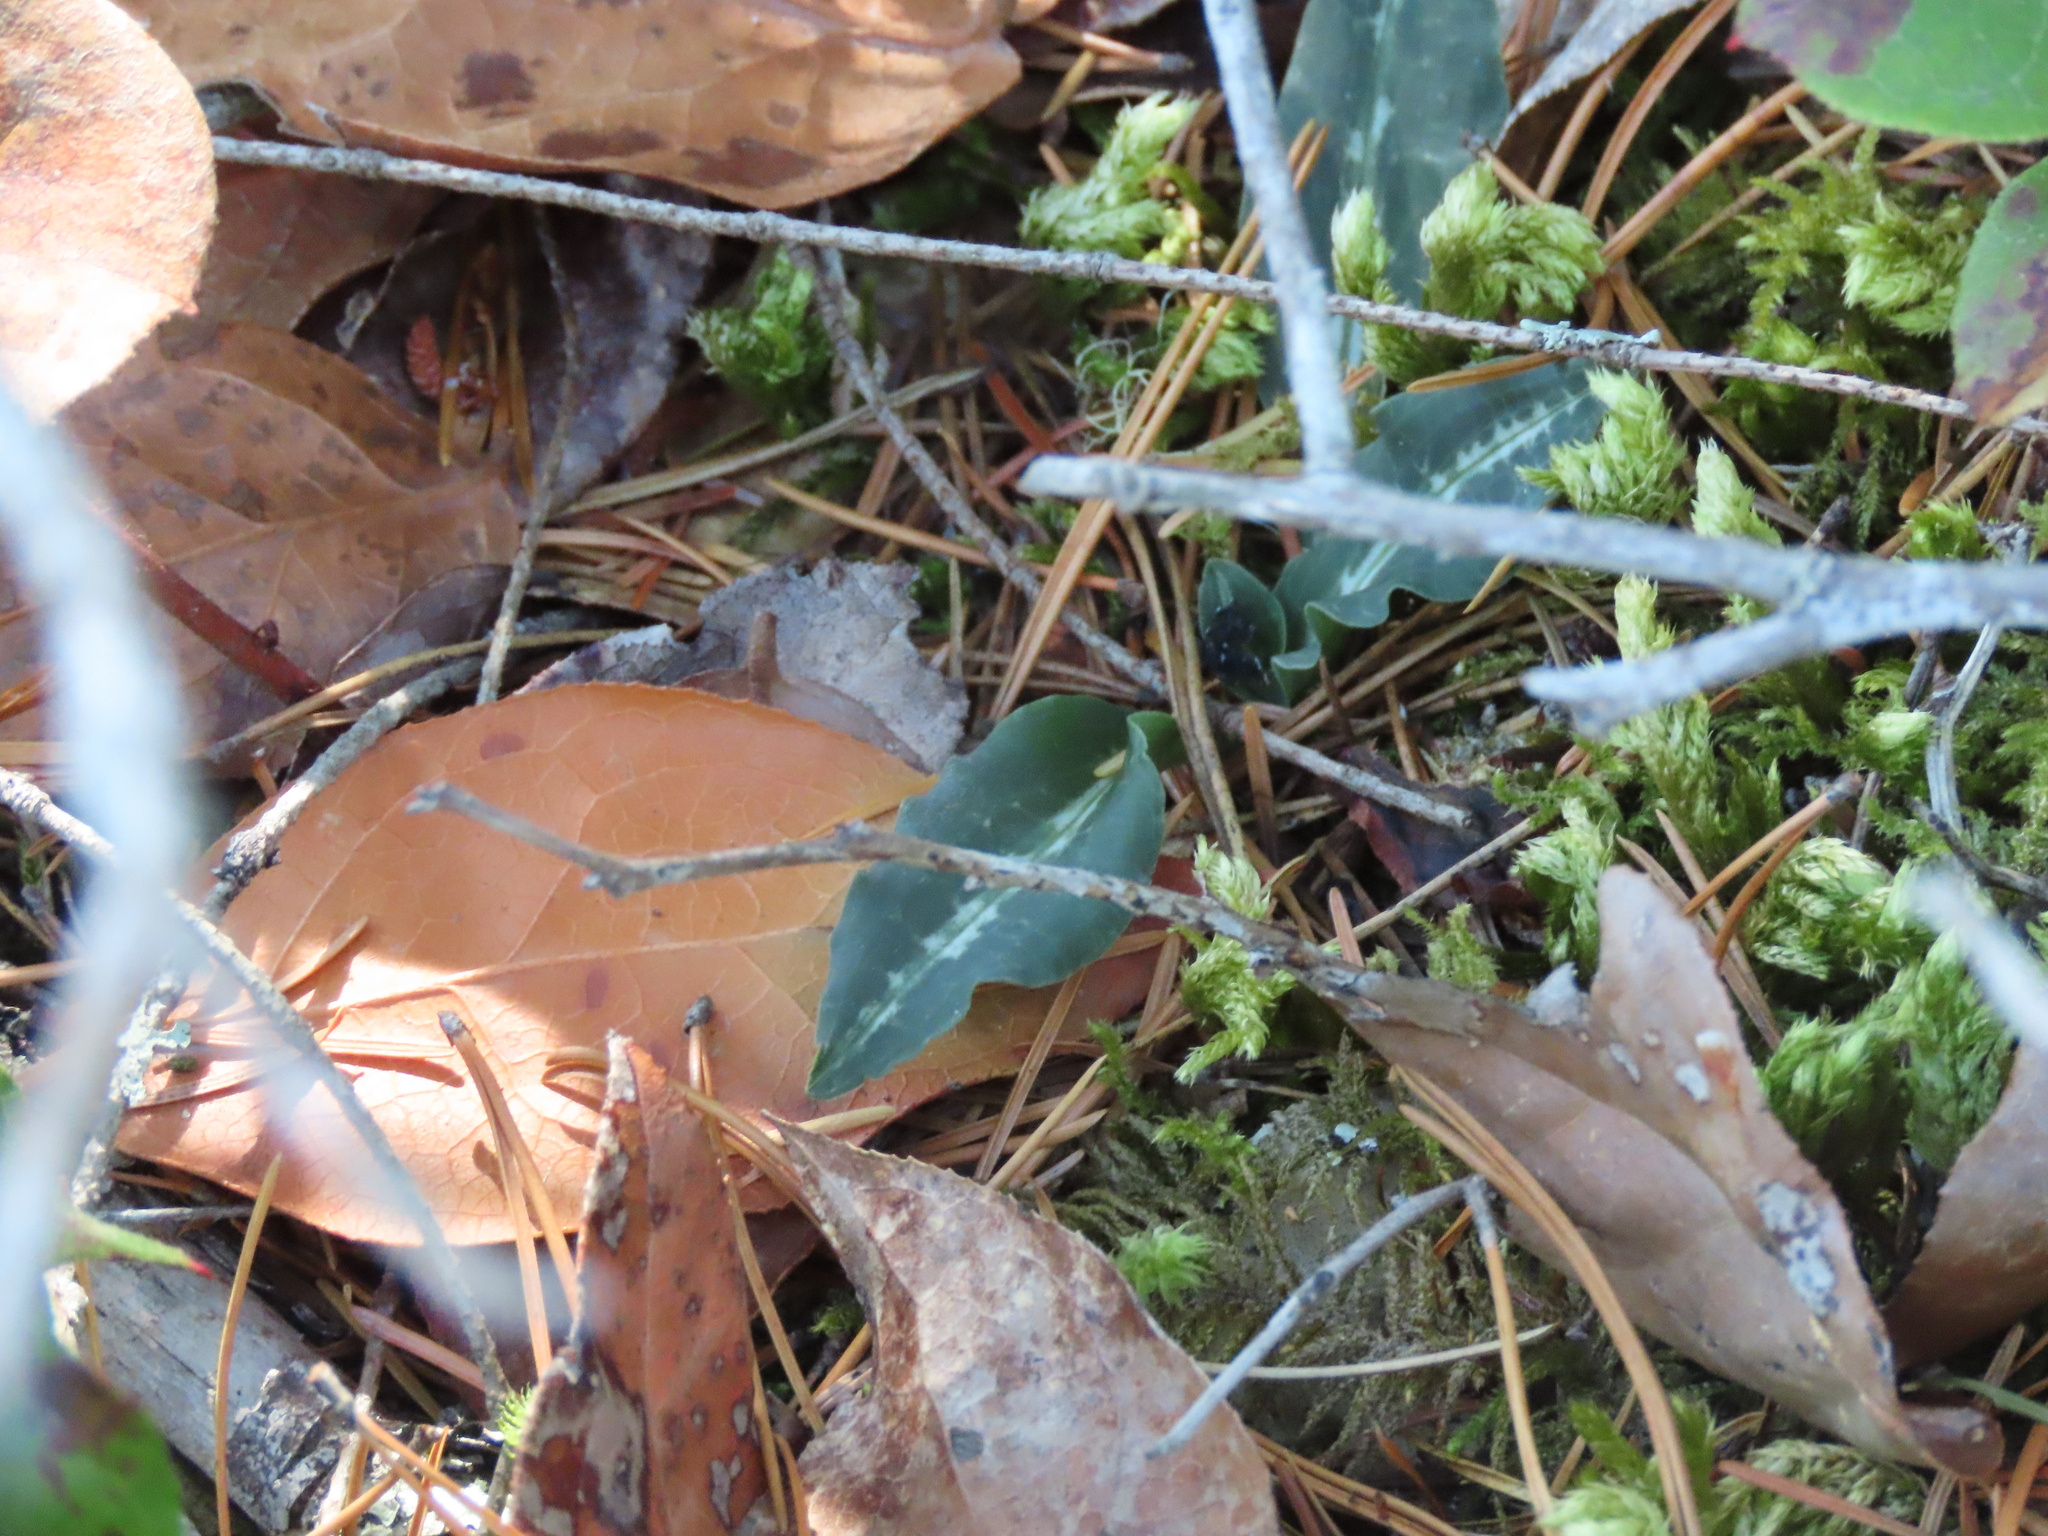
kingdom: Plantae
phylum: Tracheophyta
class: Liliopsida
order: Asparagales
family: Orchidaceae
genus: Goodyera
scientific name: Goodyera oblongifolia
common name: Giant rattlesnake-plantain
